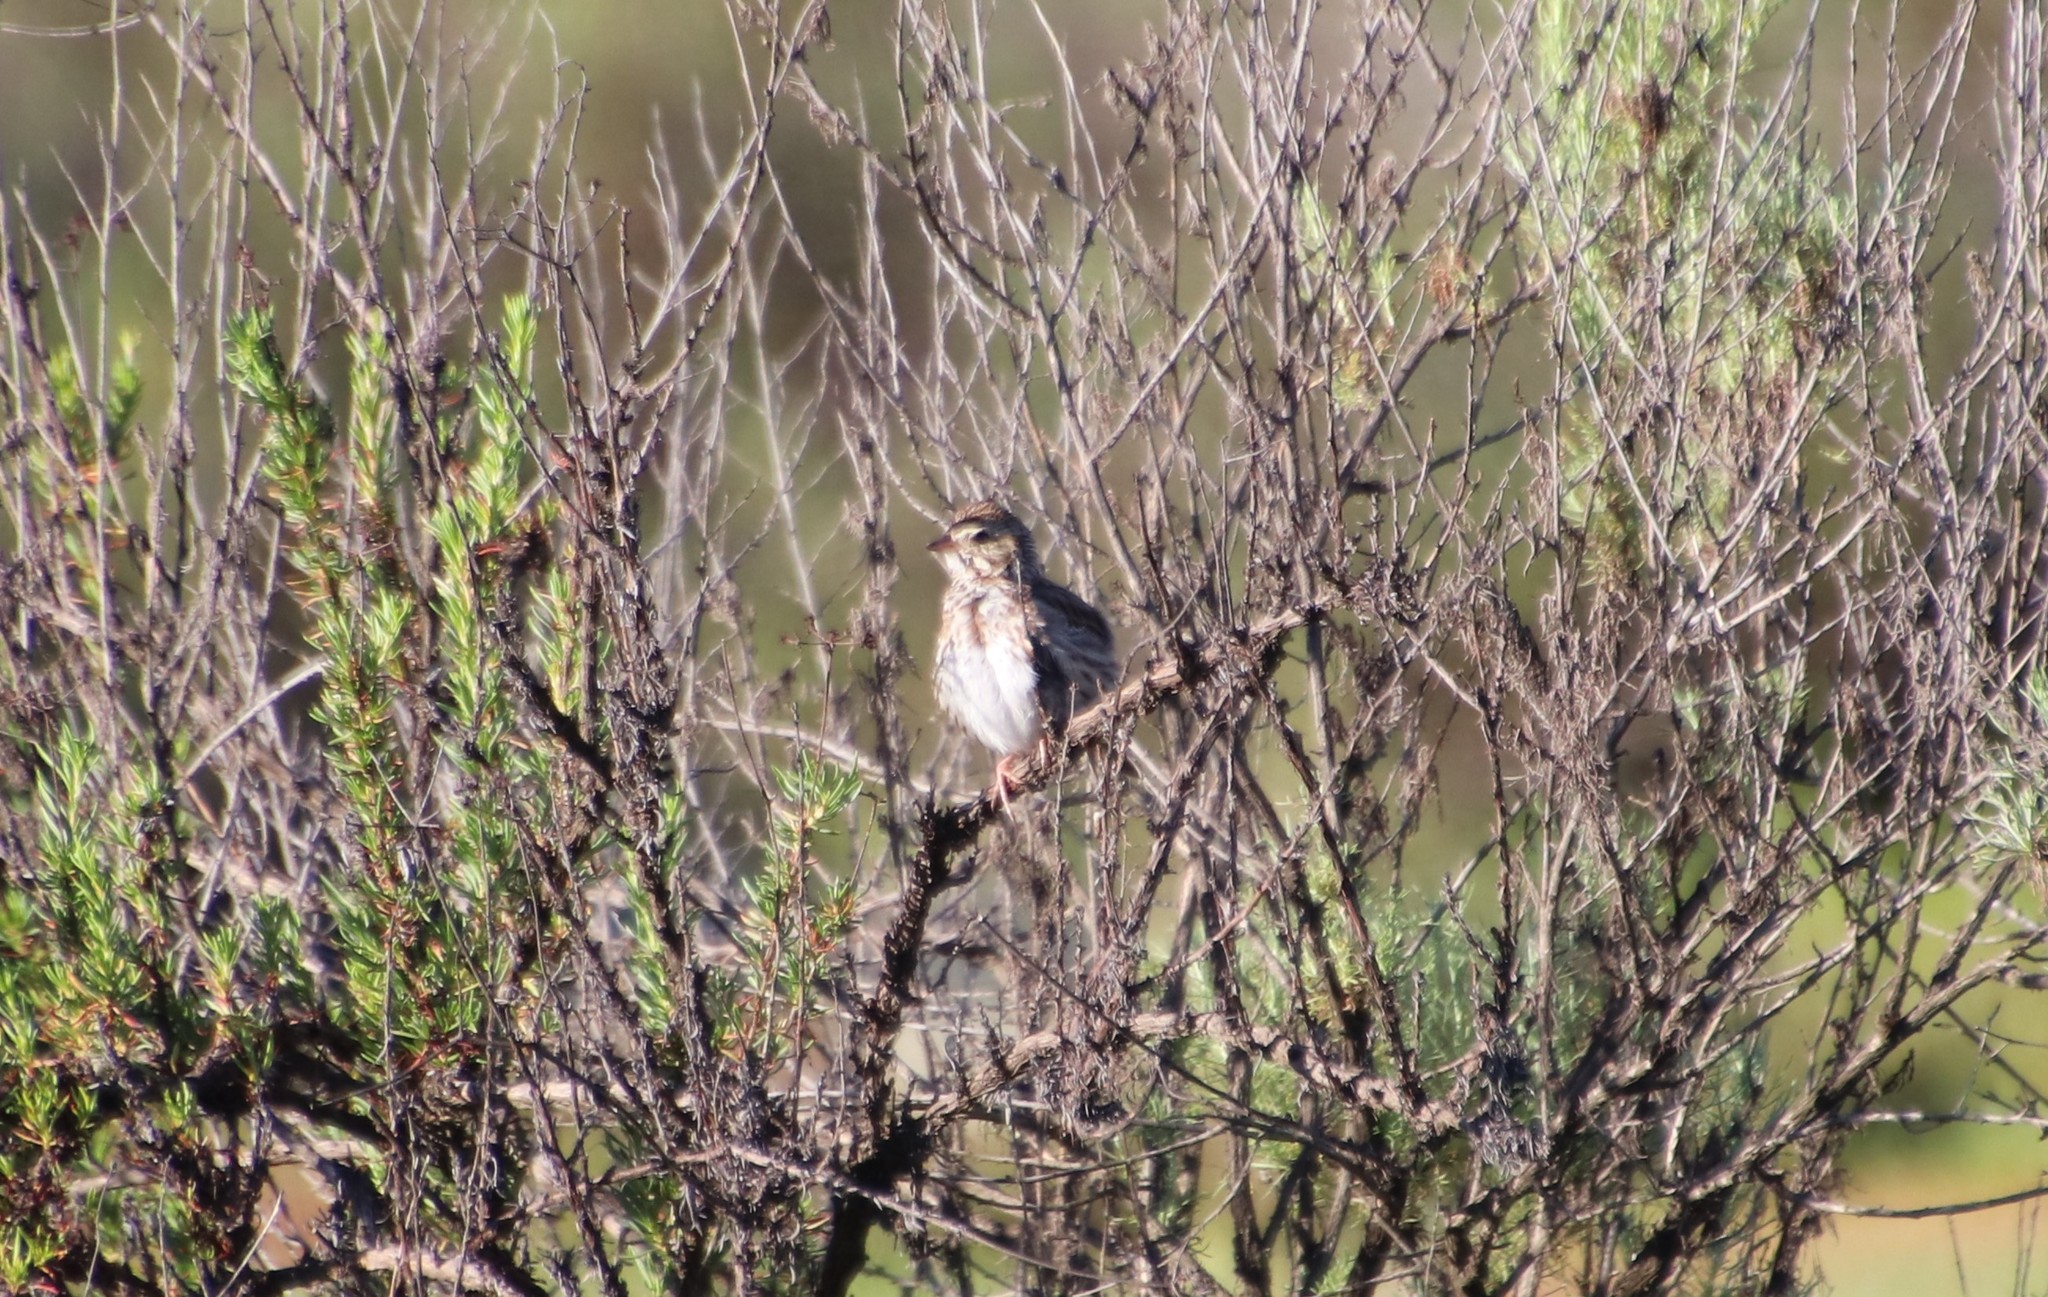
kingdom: Animalia
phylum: Chordata
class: Aves
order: Passeriformes
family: Passerellidae
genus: Passerculus
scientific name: Passerculus sandwichensis
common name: Savannah sparrow
